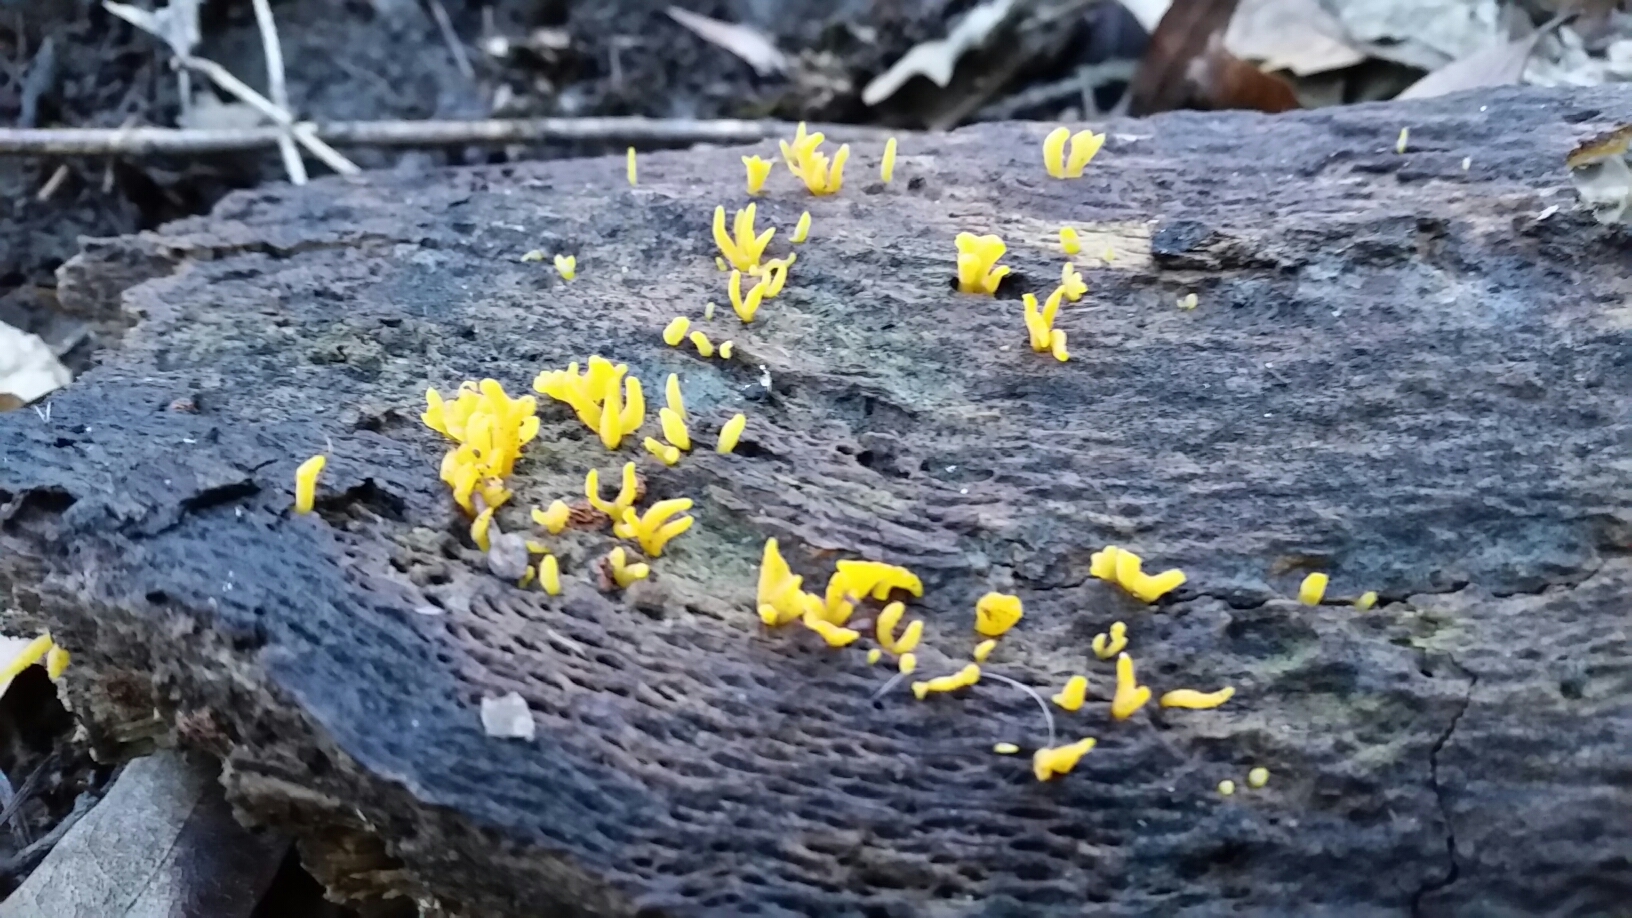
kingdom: Fungi
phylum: Basidiomycota
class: Dacrymycetes
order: Dacrymycetales
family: Dacrymycetaceae
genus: Calocera
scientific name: Calocera cornea
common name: Small stagshorn
